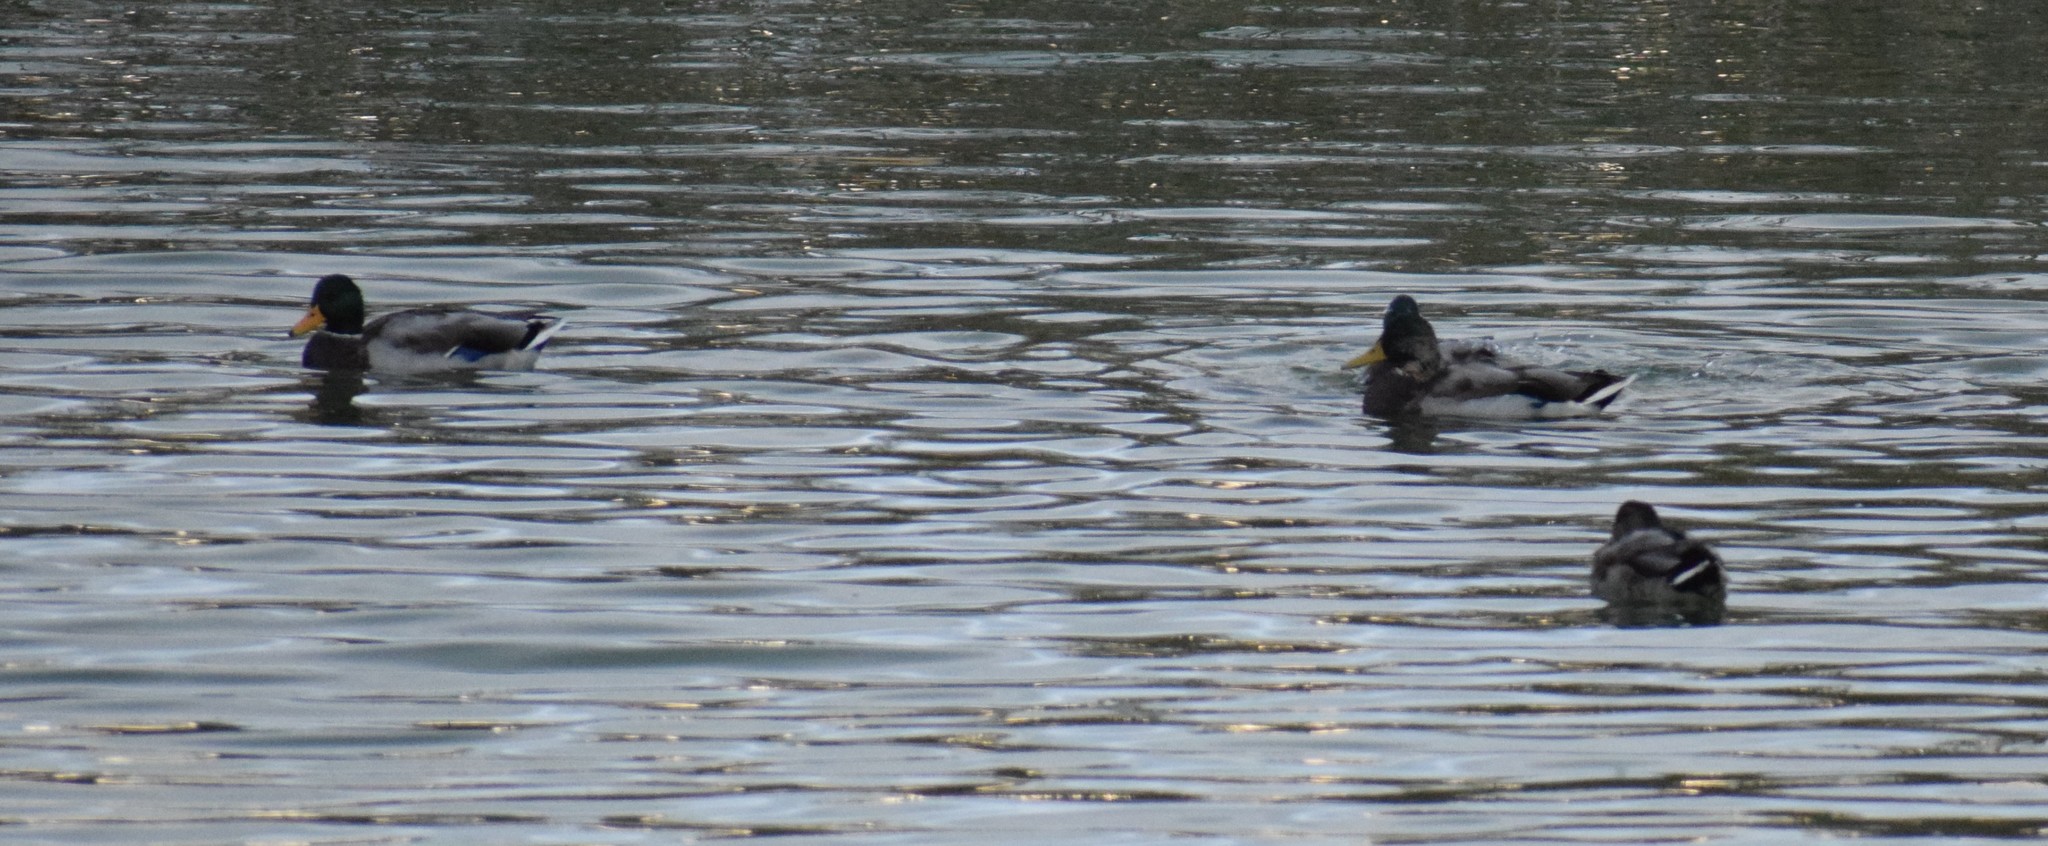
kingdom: Animalia
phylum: Chordata
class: Aves
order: Anseriformes
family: Anatidae
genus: Anas
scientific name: Anas platyrhynchos
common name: Mallard
